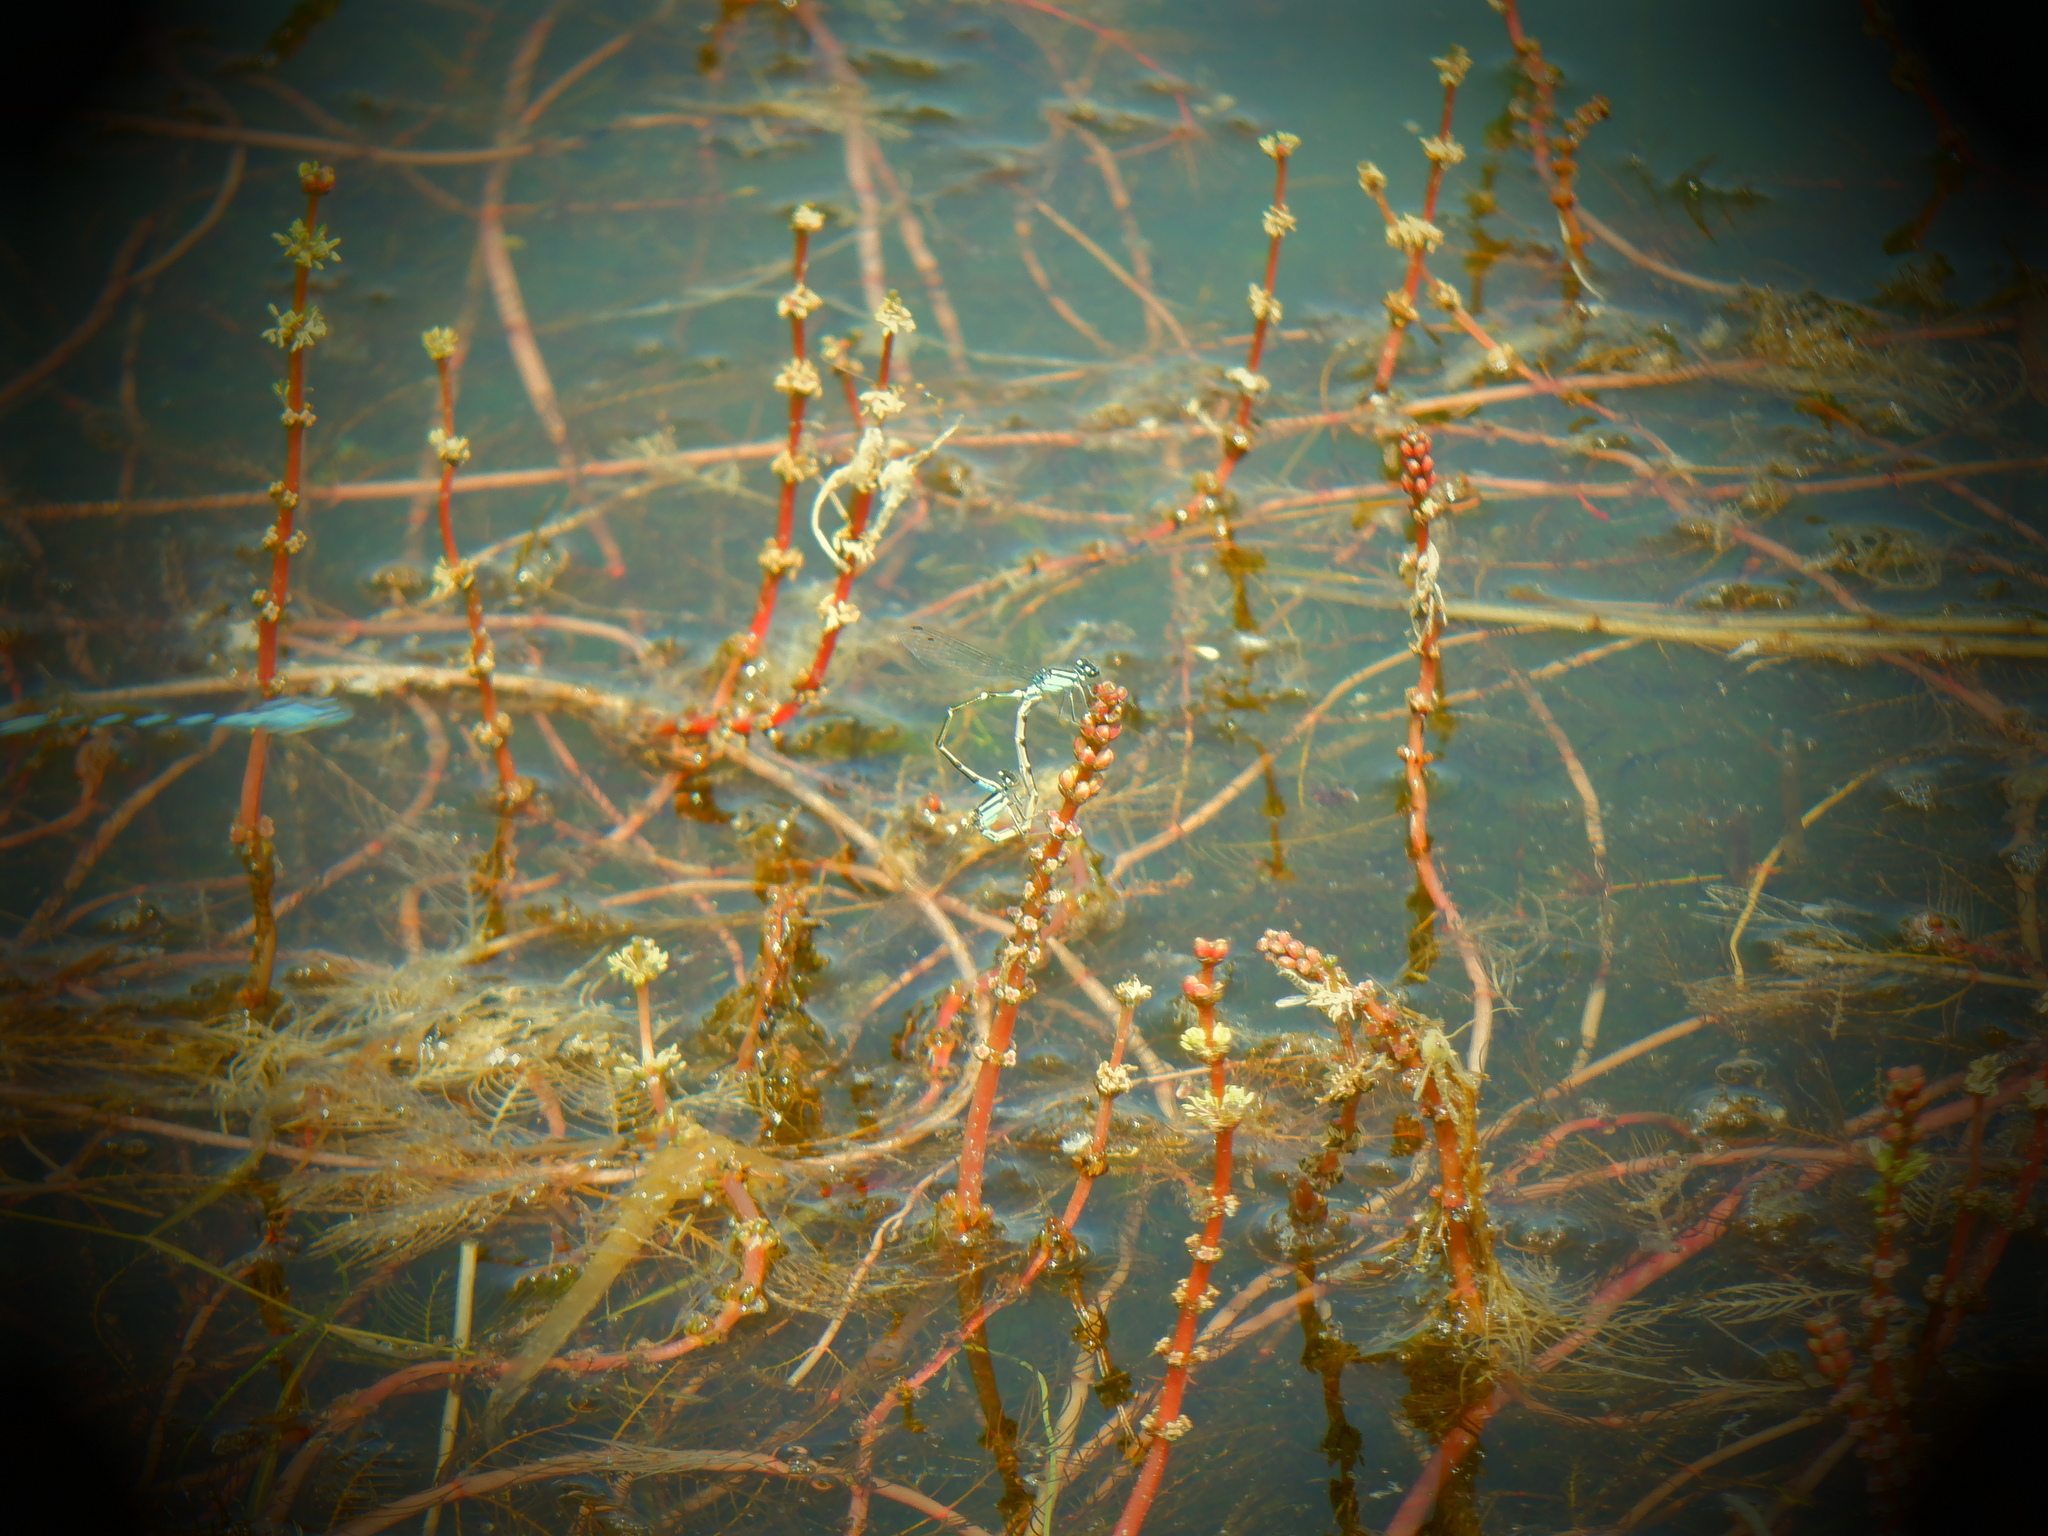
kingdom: Animalia
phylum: Arthropoda
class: Insecta
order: Odonata
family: Coenagrionidae
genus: Enallagma
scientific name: Enallagma geminatum
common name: Skimming bluet
